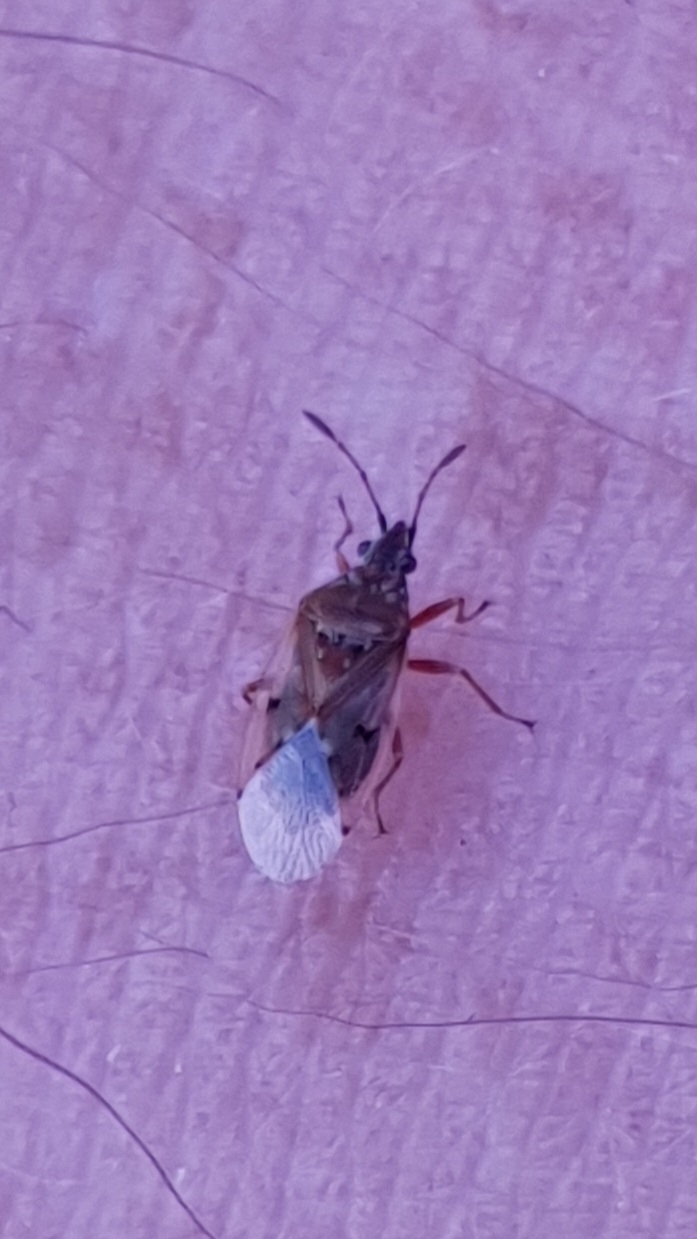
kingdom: Animalia
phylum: Arthropoda
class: Insecta
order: Hemiptera
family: Lygaeidae
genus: Kleidocerys
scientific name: Kleidocerys resedae
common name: Birch catkin bug
